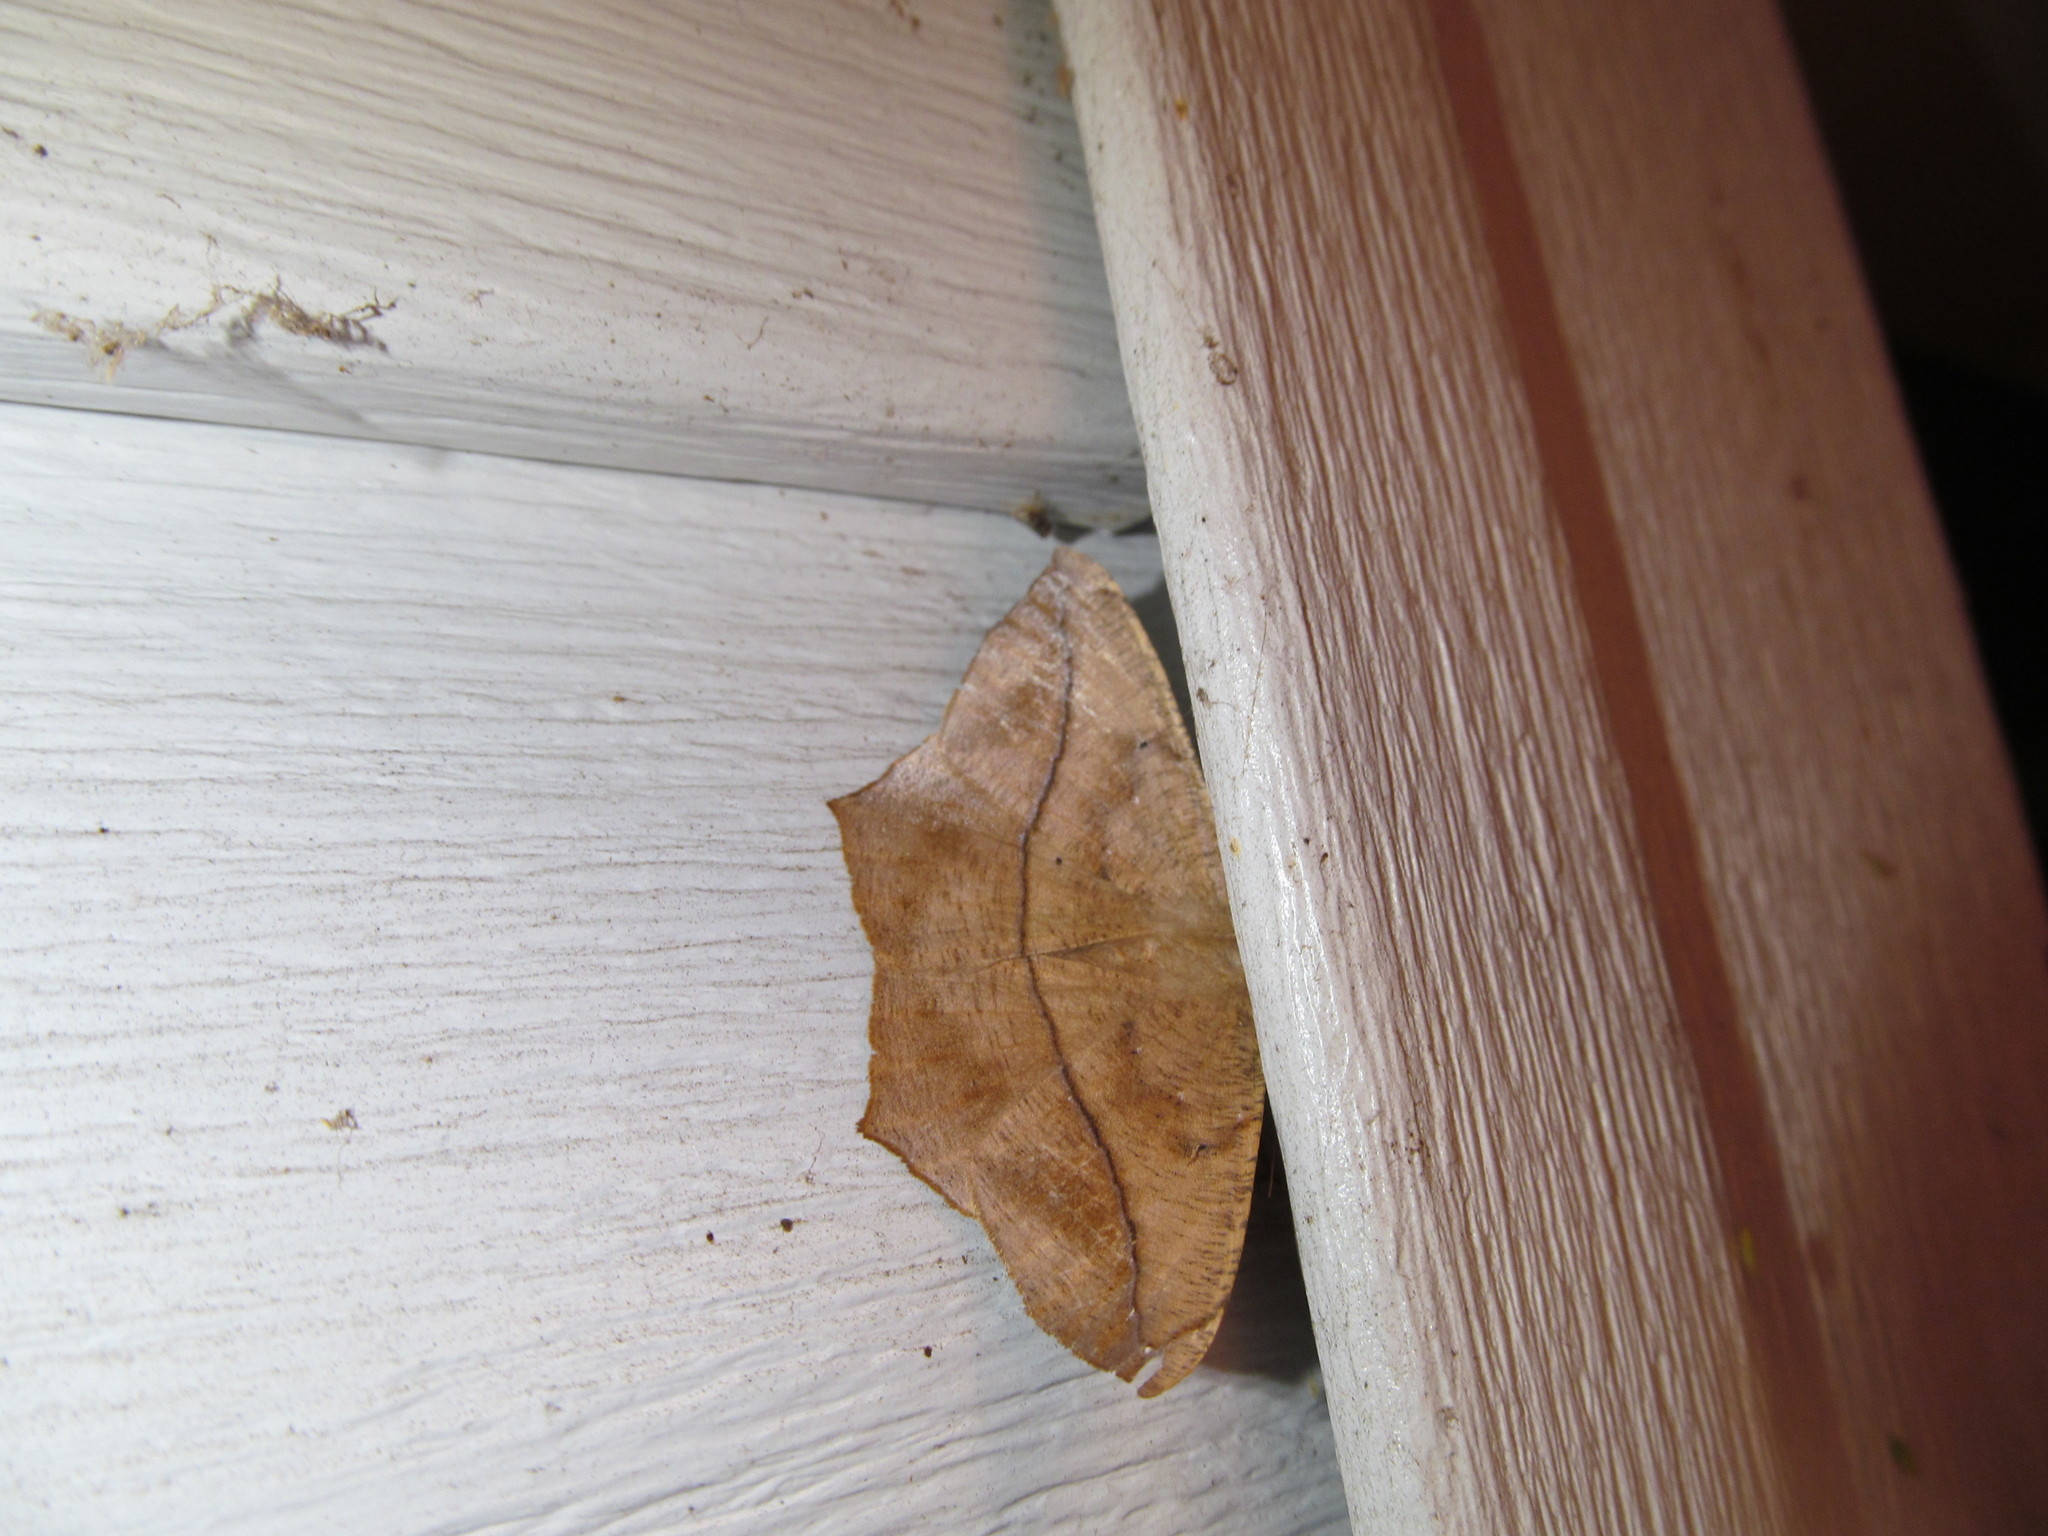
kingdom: Animalia
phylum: Arthropoda
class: Insecta
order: Lepidoptera
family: Geometridae
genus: Prochoerodes
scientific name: Prochoerodes lineola
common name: Large maple spanworm
